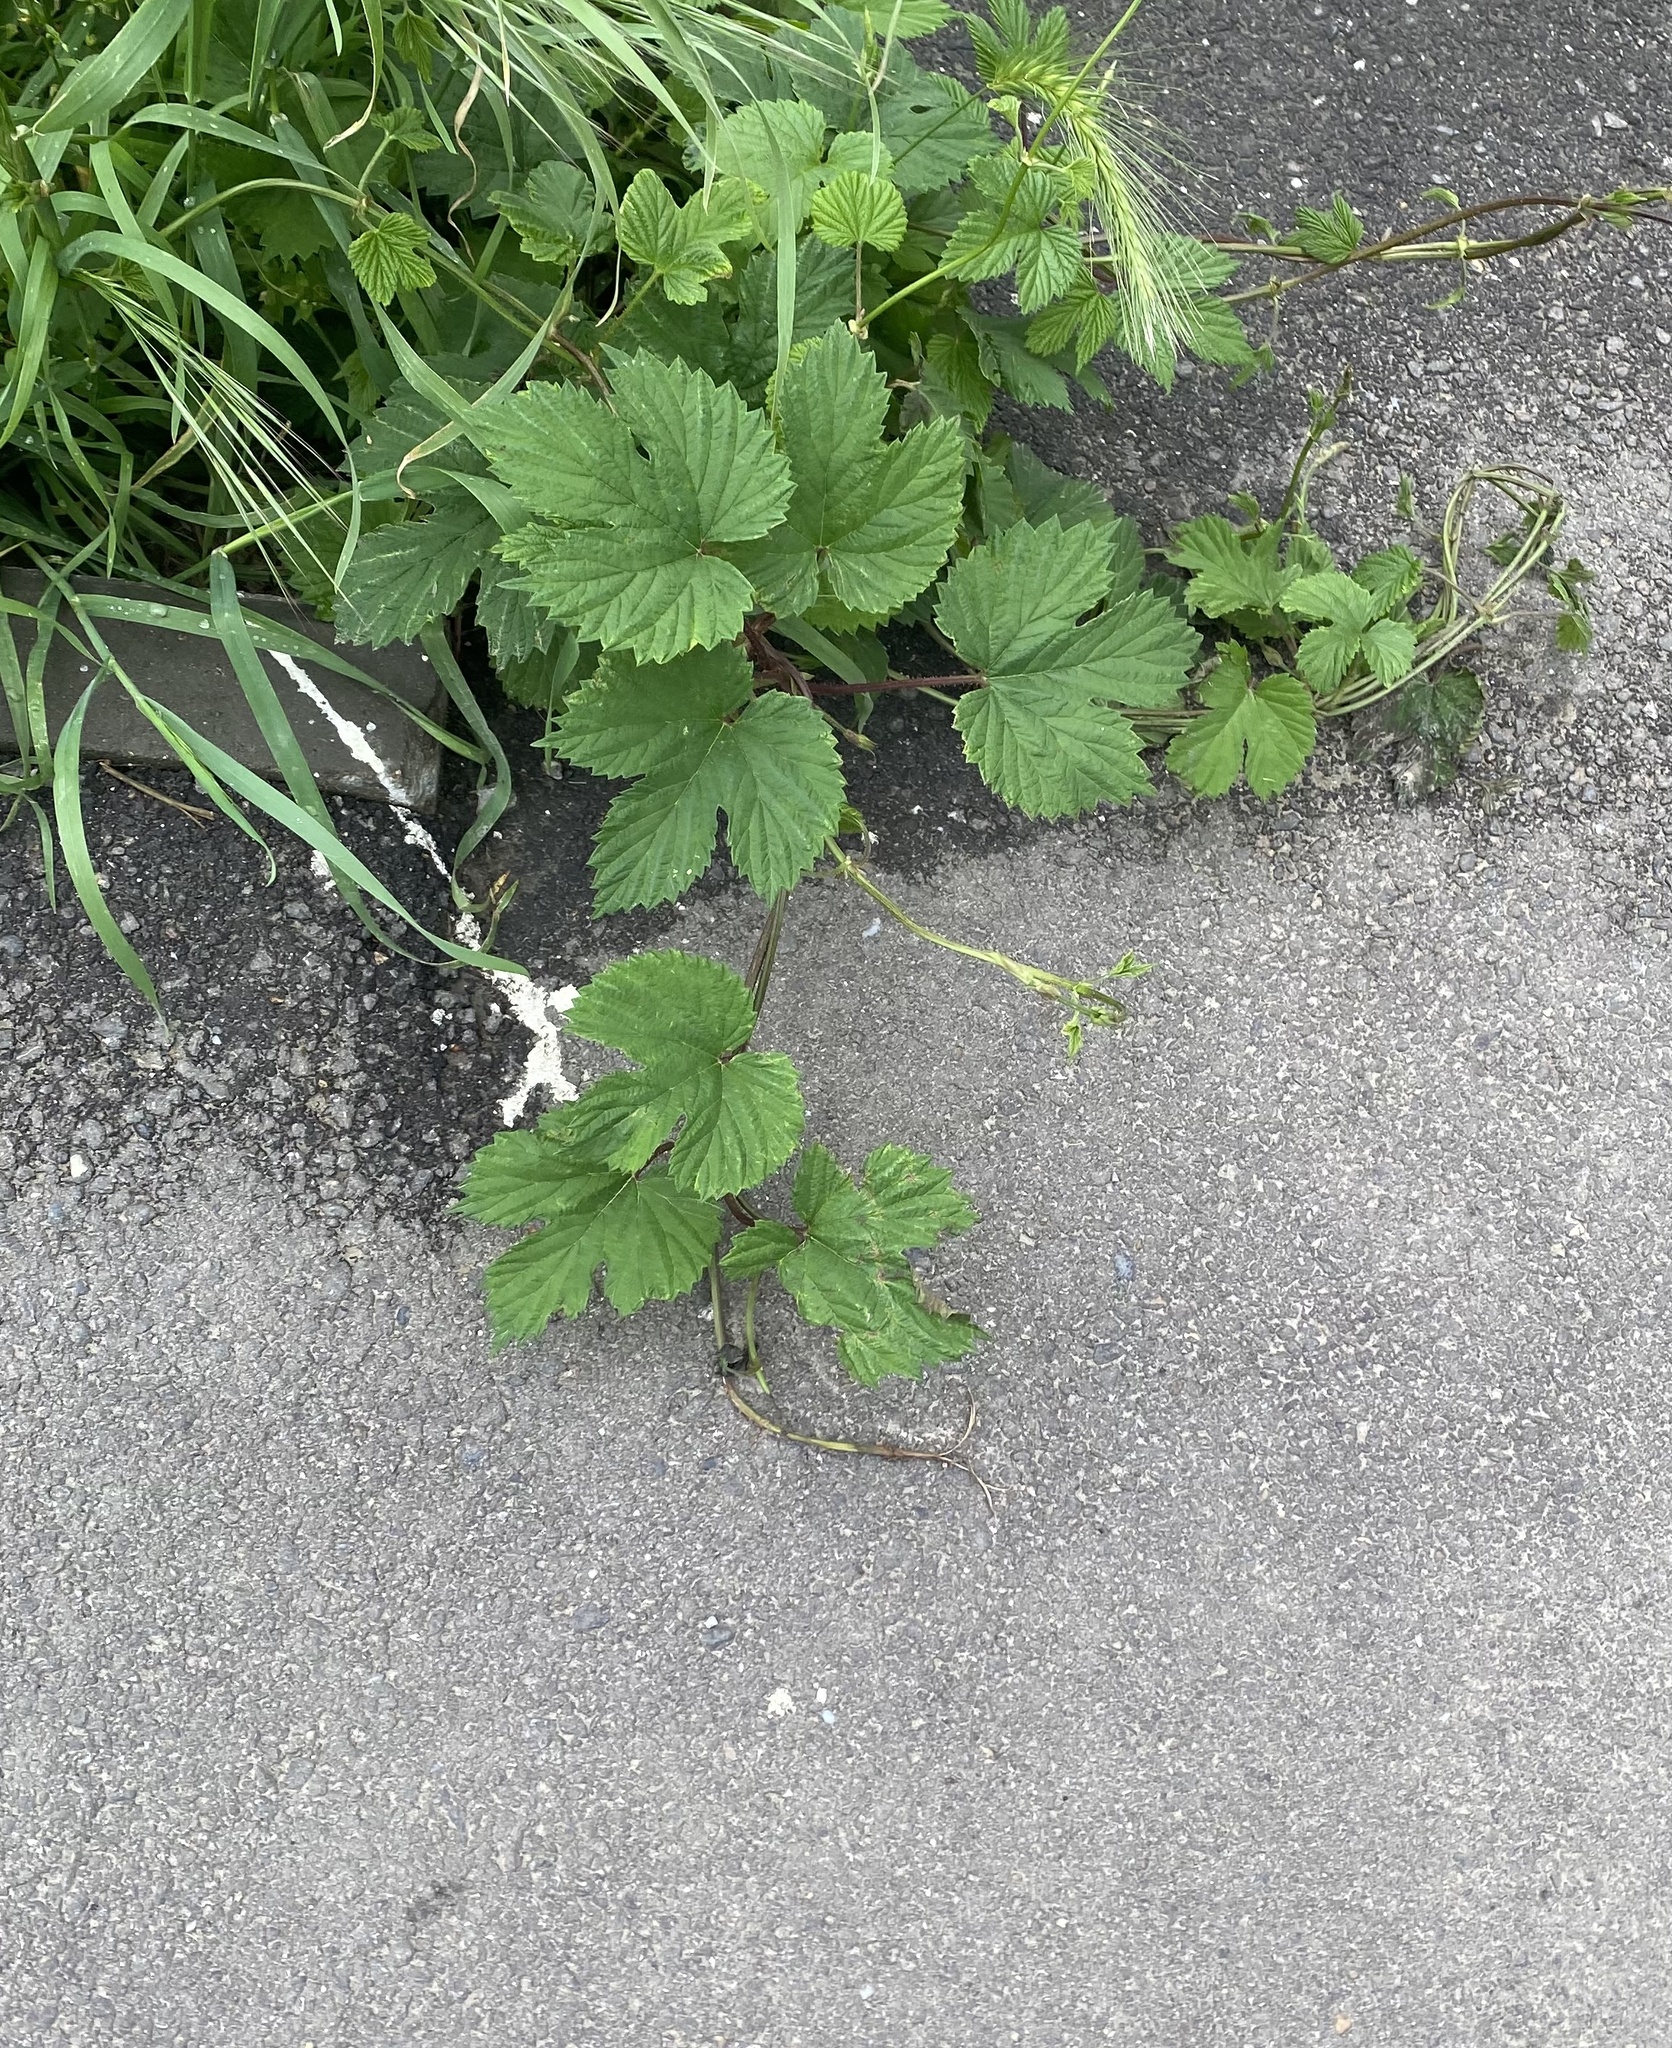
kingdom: Plantae
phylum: Tracheophyta
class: Magnoliopsida
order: Rosales
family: Cannabaceae
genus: Humulus
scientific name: Humulus lupulus
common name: Hop
